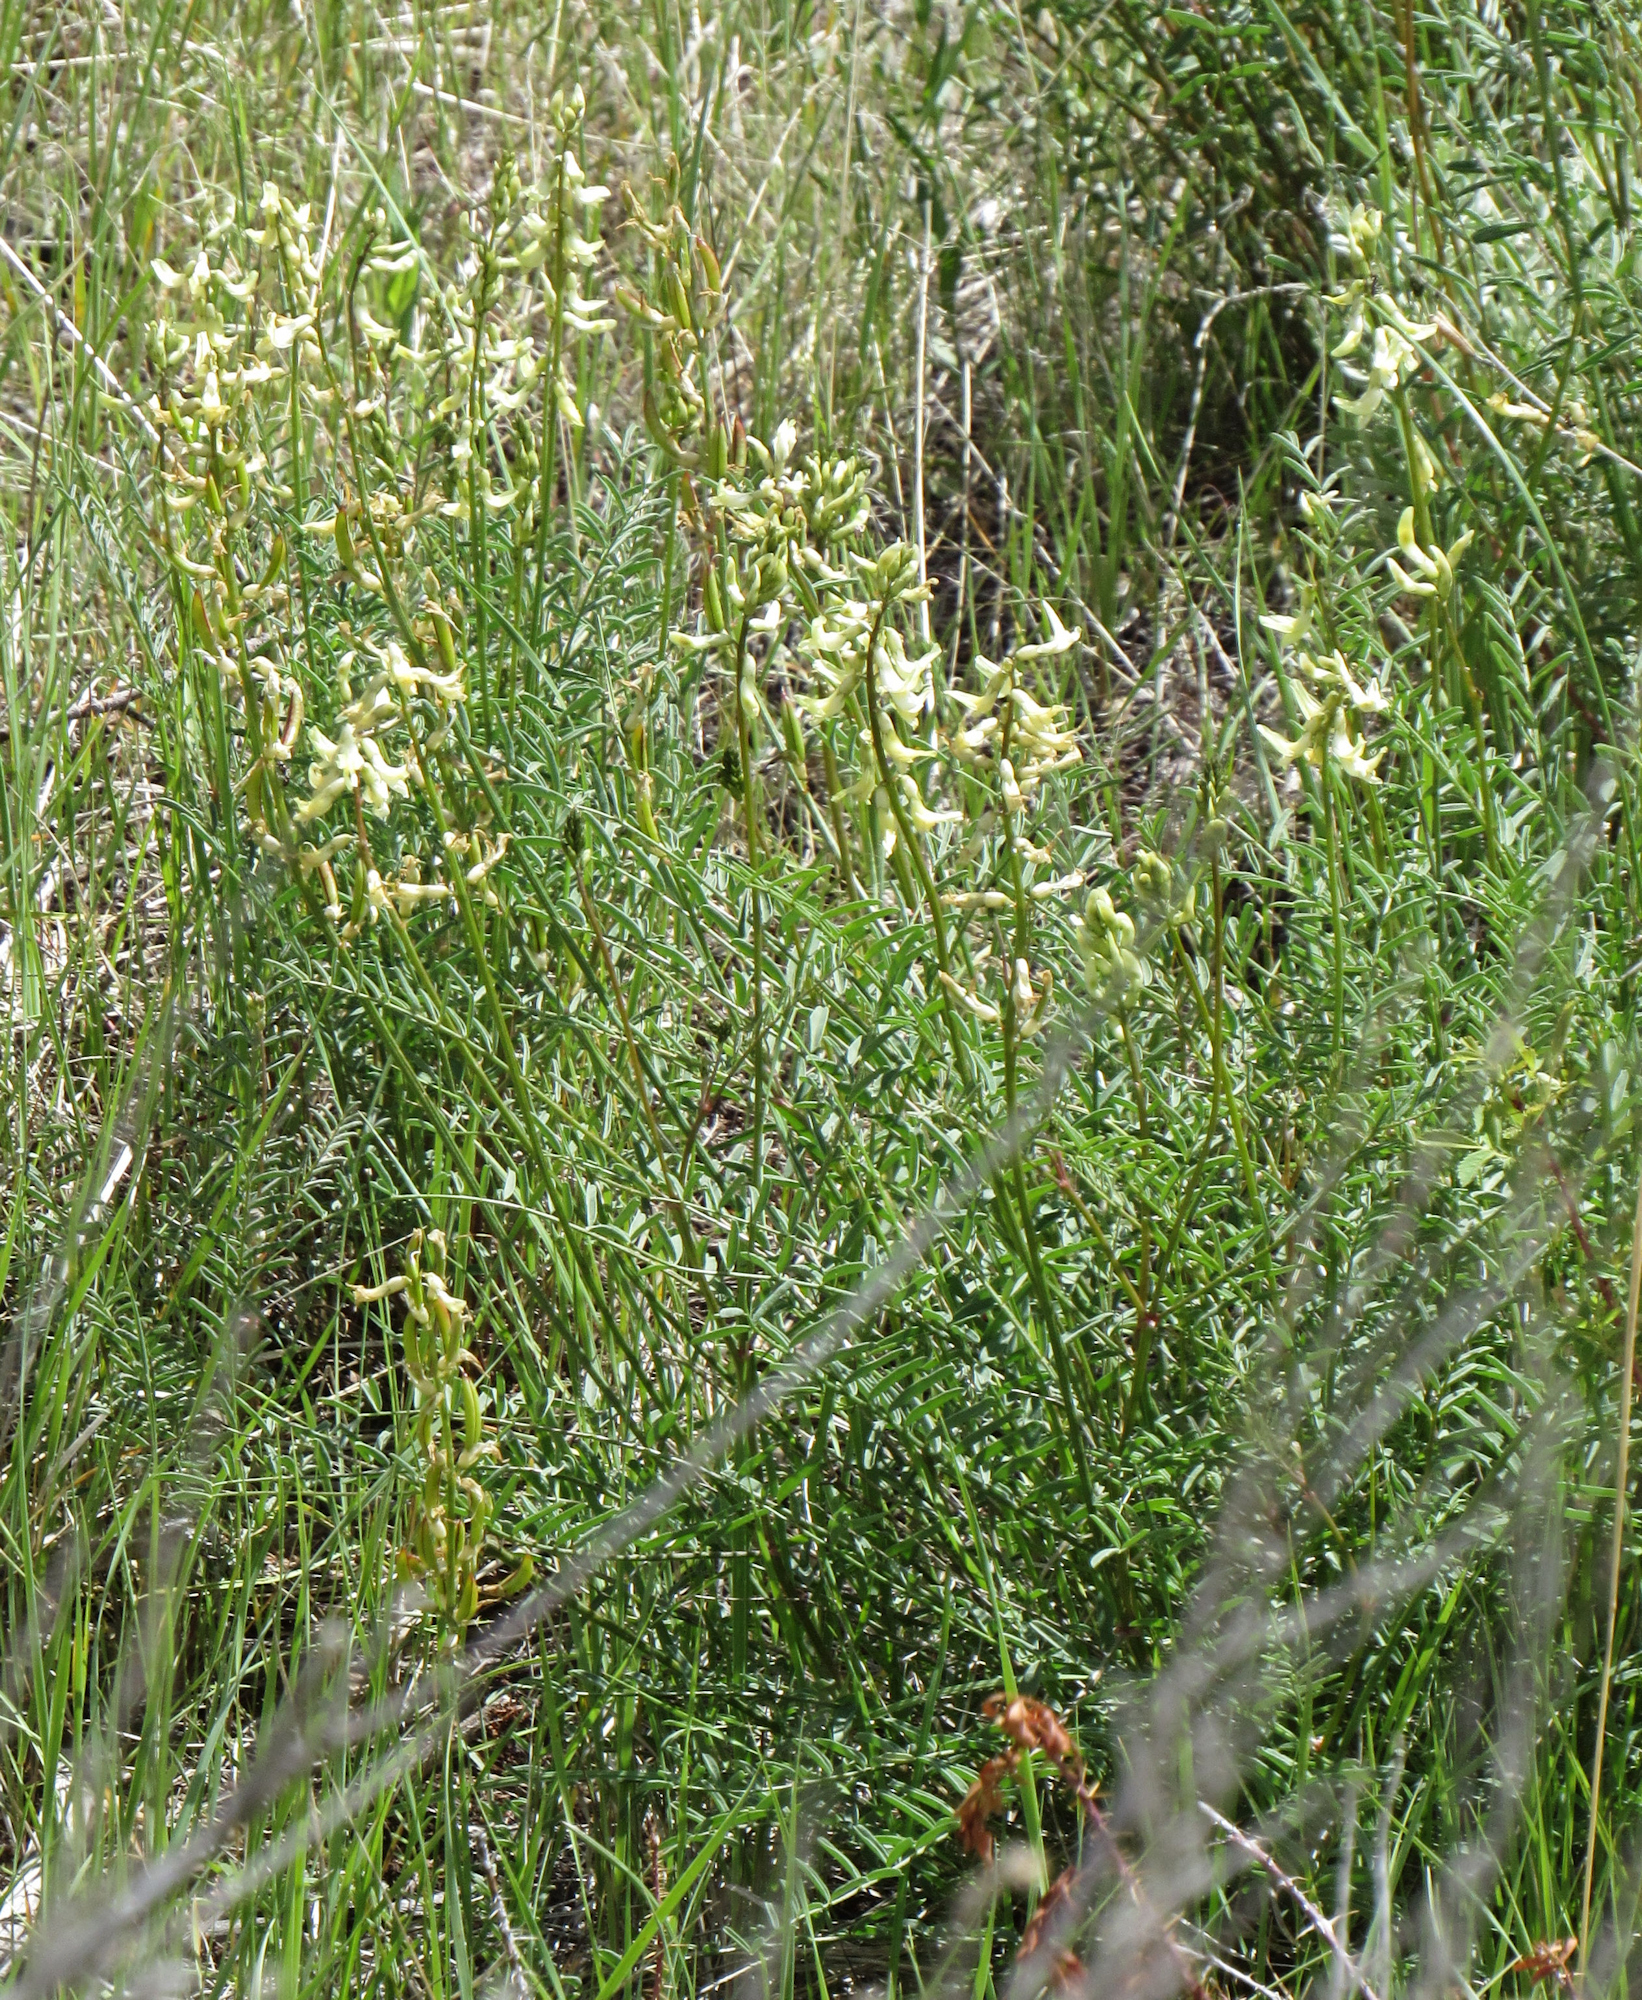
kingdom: Plantae
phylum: Tracheophyta
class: Magnoliopsida
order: Fabales
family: Fabaceae
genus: Astragalus
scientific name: Astragalus atropubescens
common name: Kelsey milk-vetch
